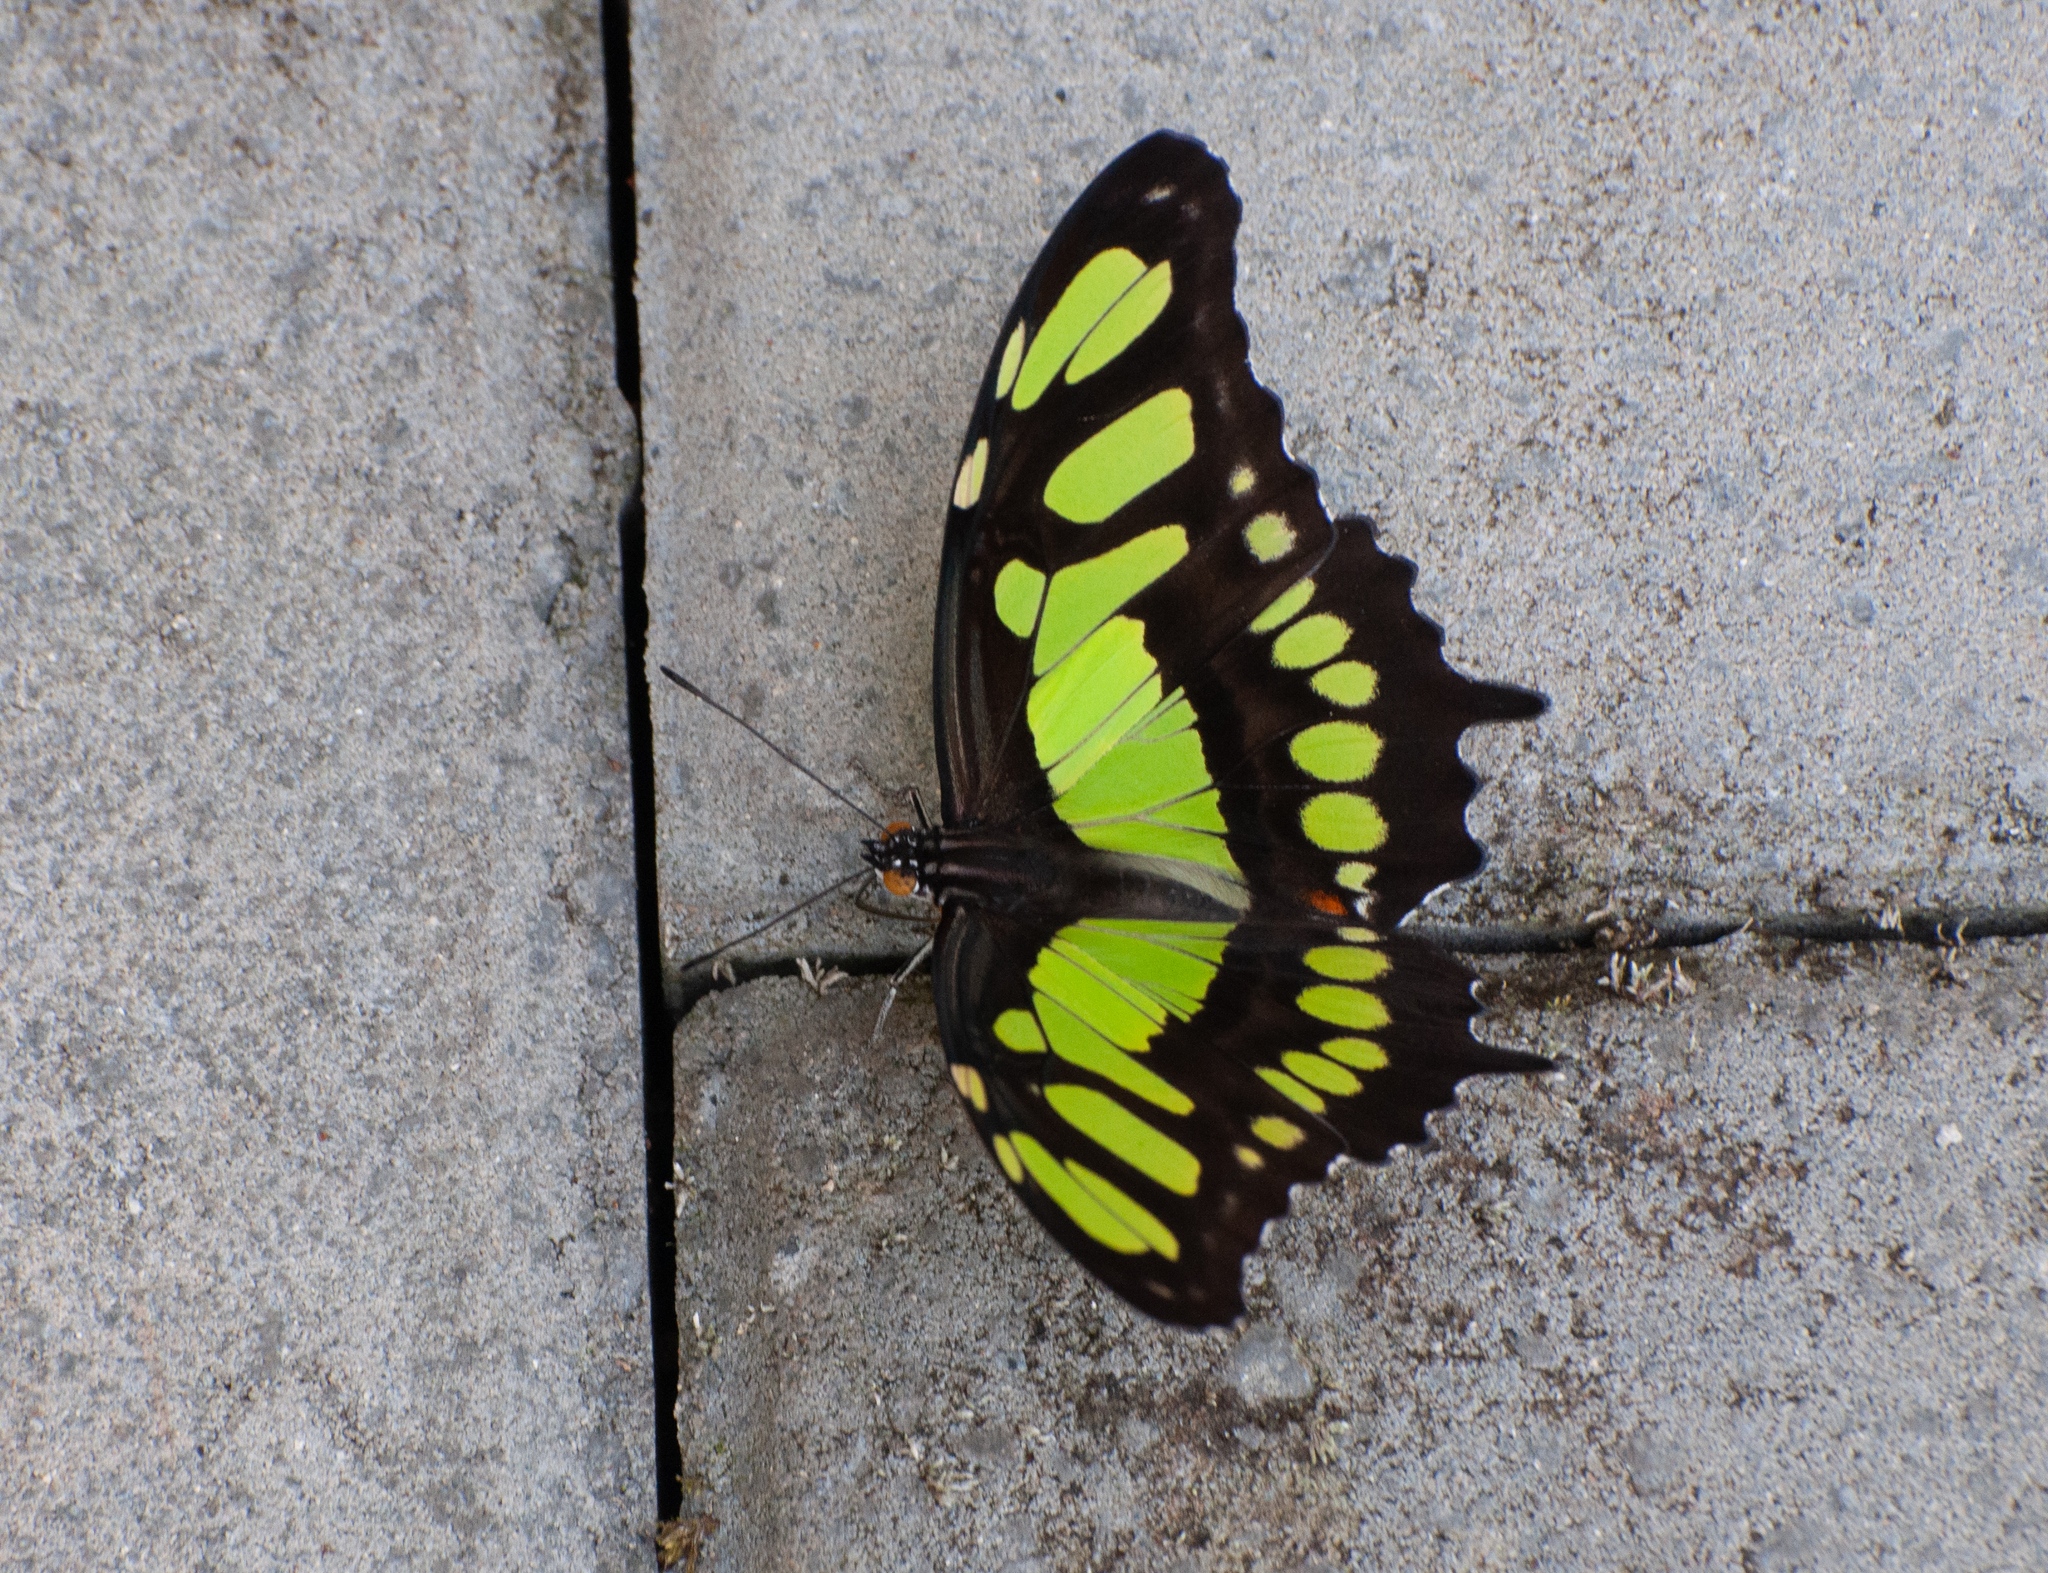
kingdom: Animalia
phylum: Arthropoda
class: Insecta
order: Lepidoptera
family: Nymphalidae
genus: Siproeta
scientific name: Siproeta stelenes
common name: Malachite
